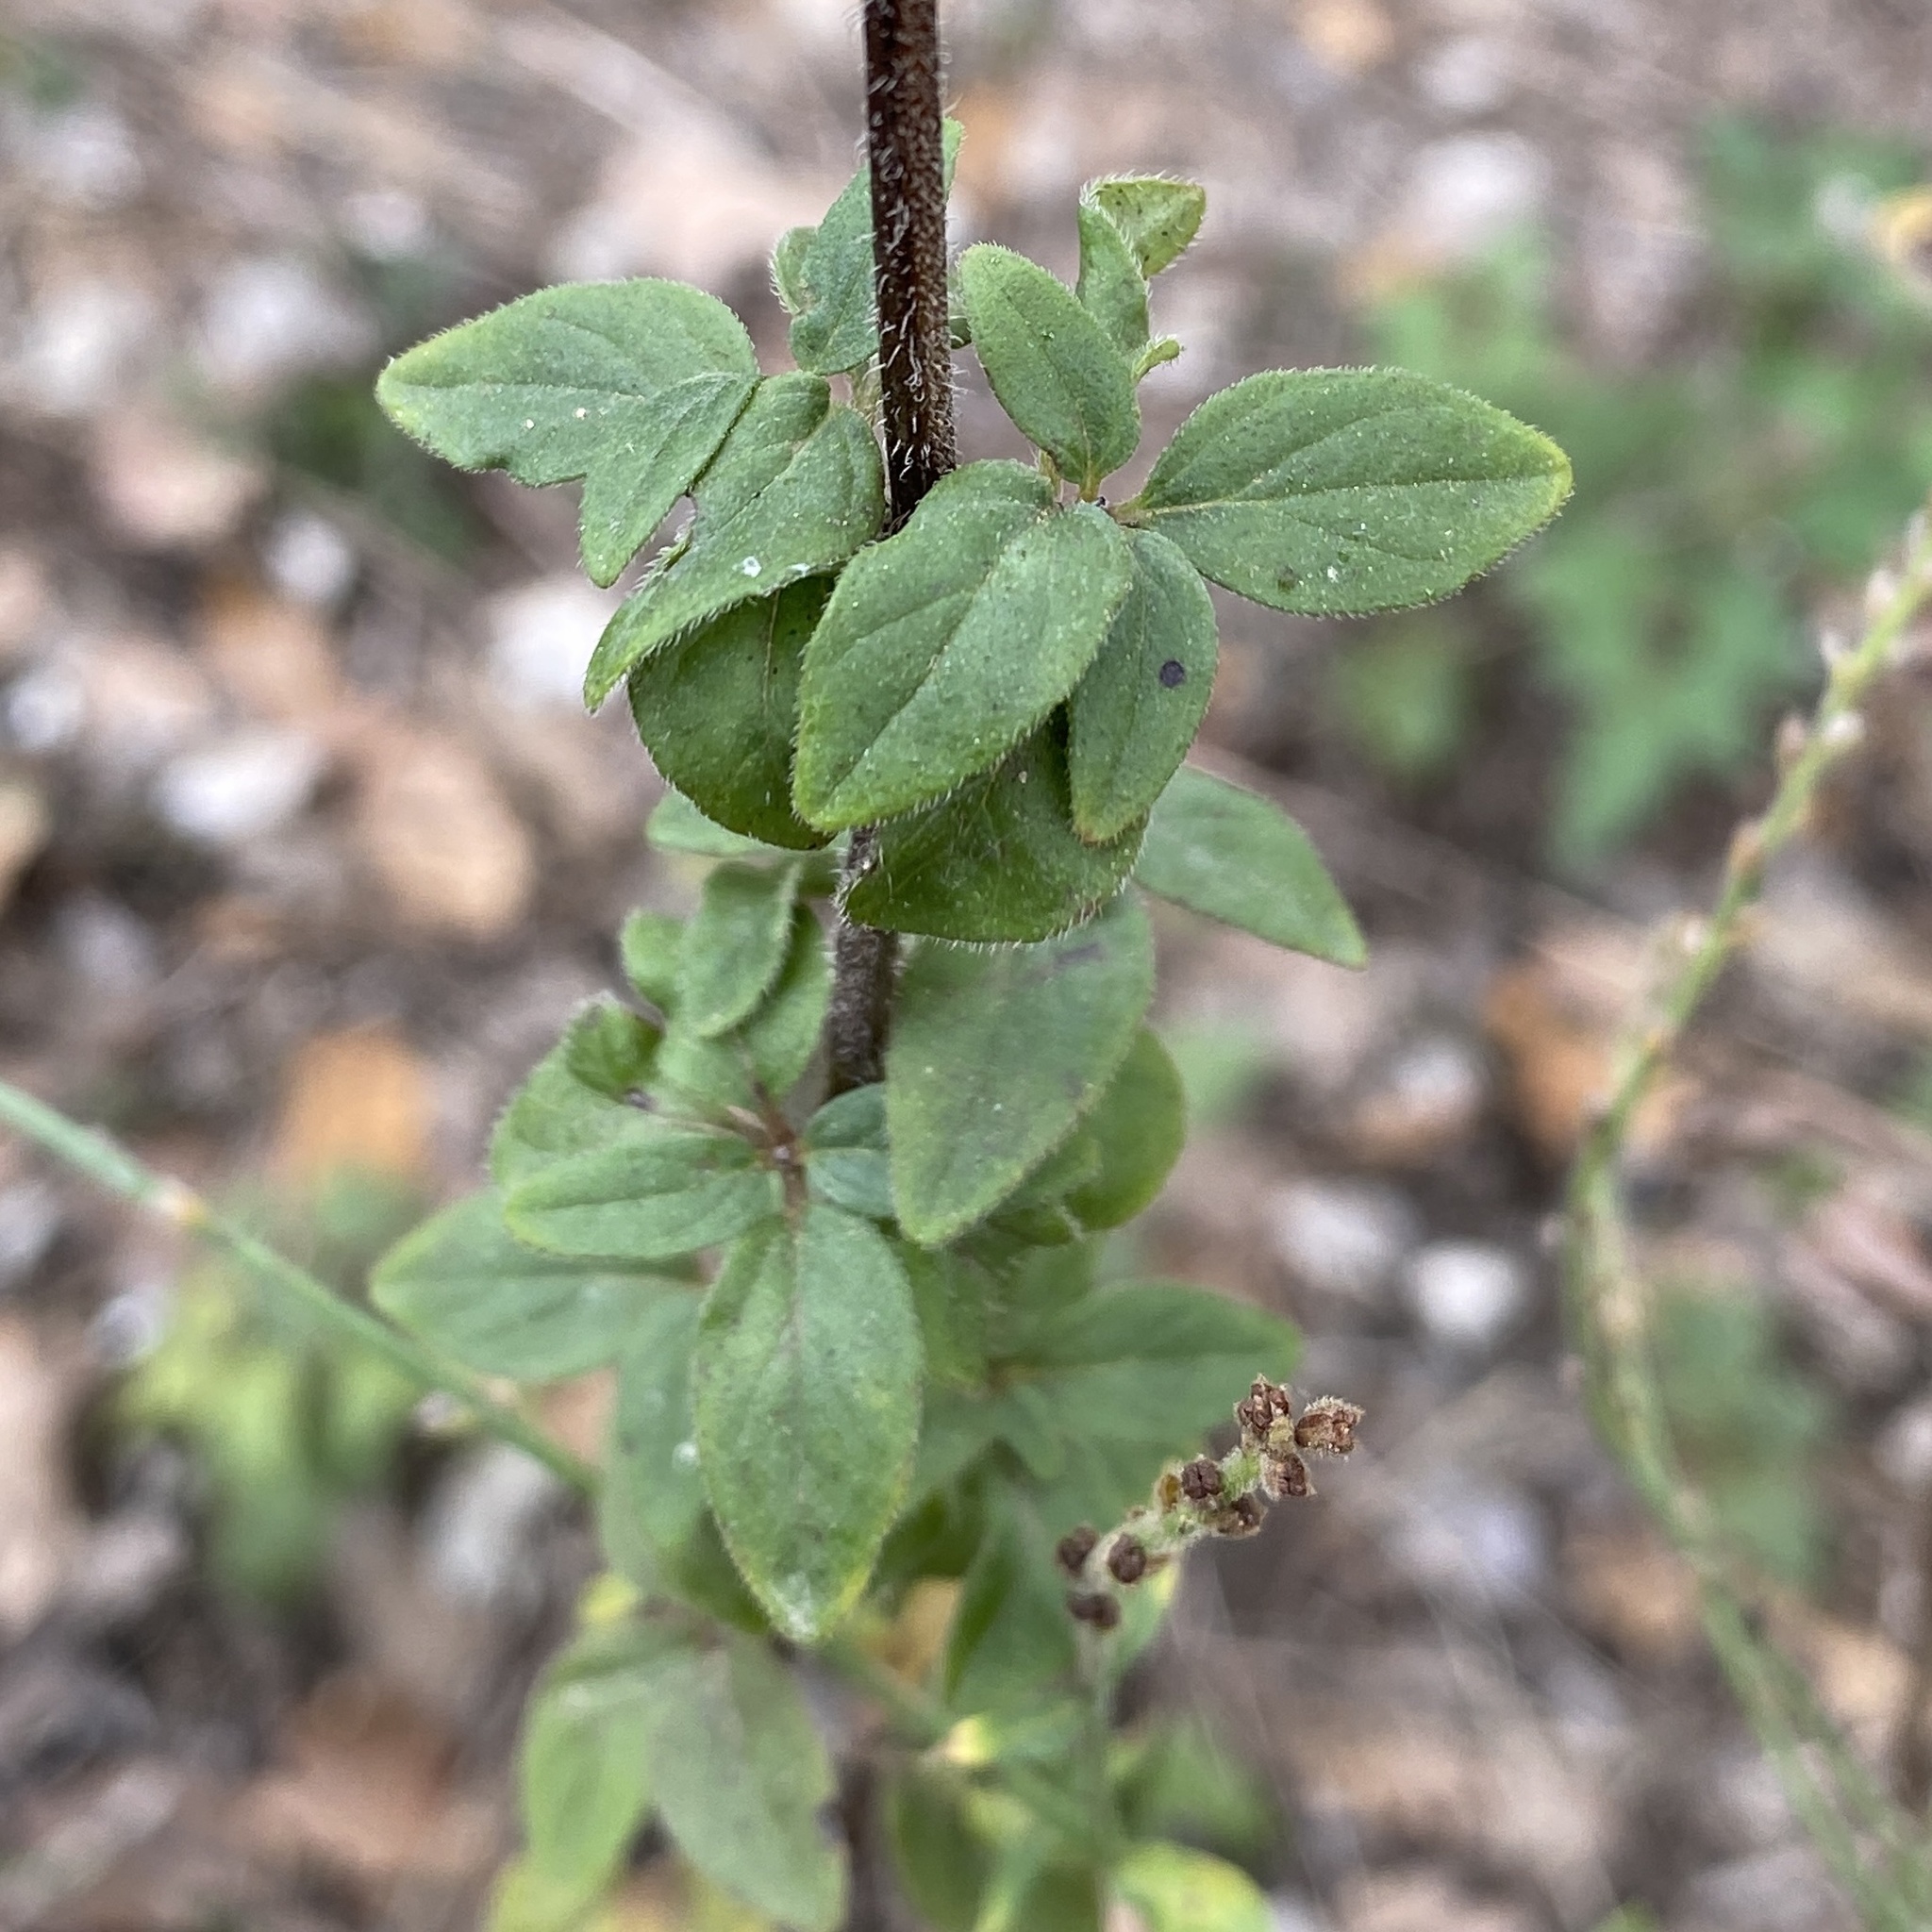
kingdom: Plantae
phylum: Tracheophyta
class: Magnoliopsida
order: Lamiales
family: Lamiaceae
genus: Origanum
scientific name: Origanum vulgare
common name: Wild marjoram
